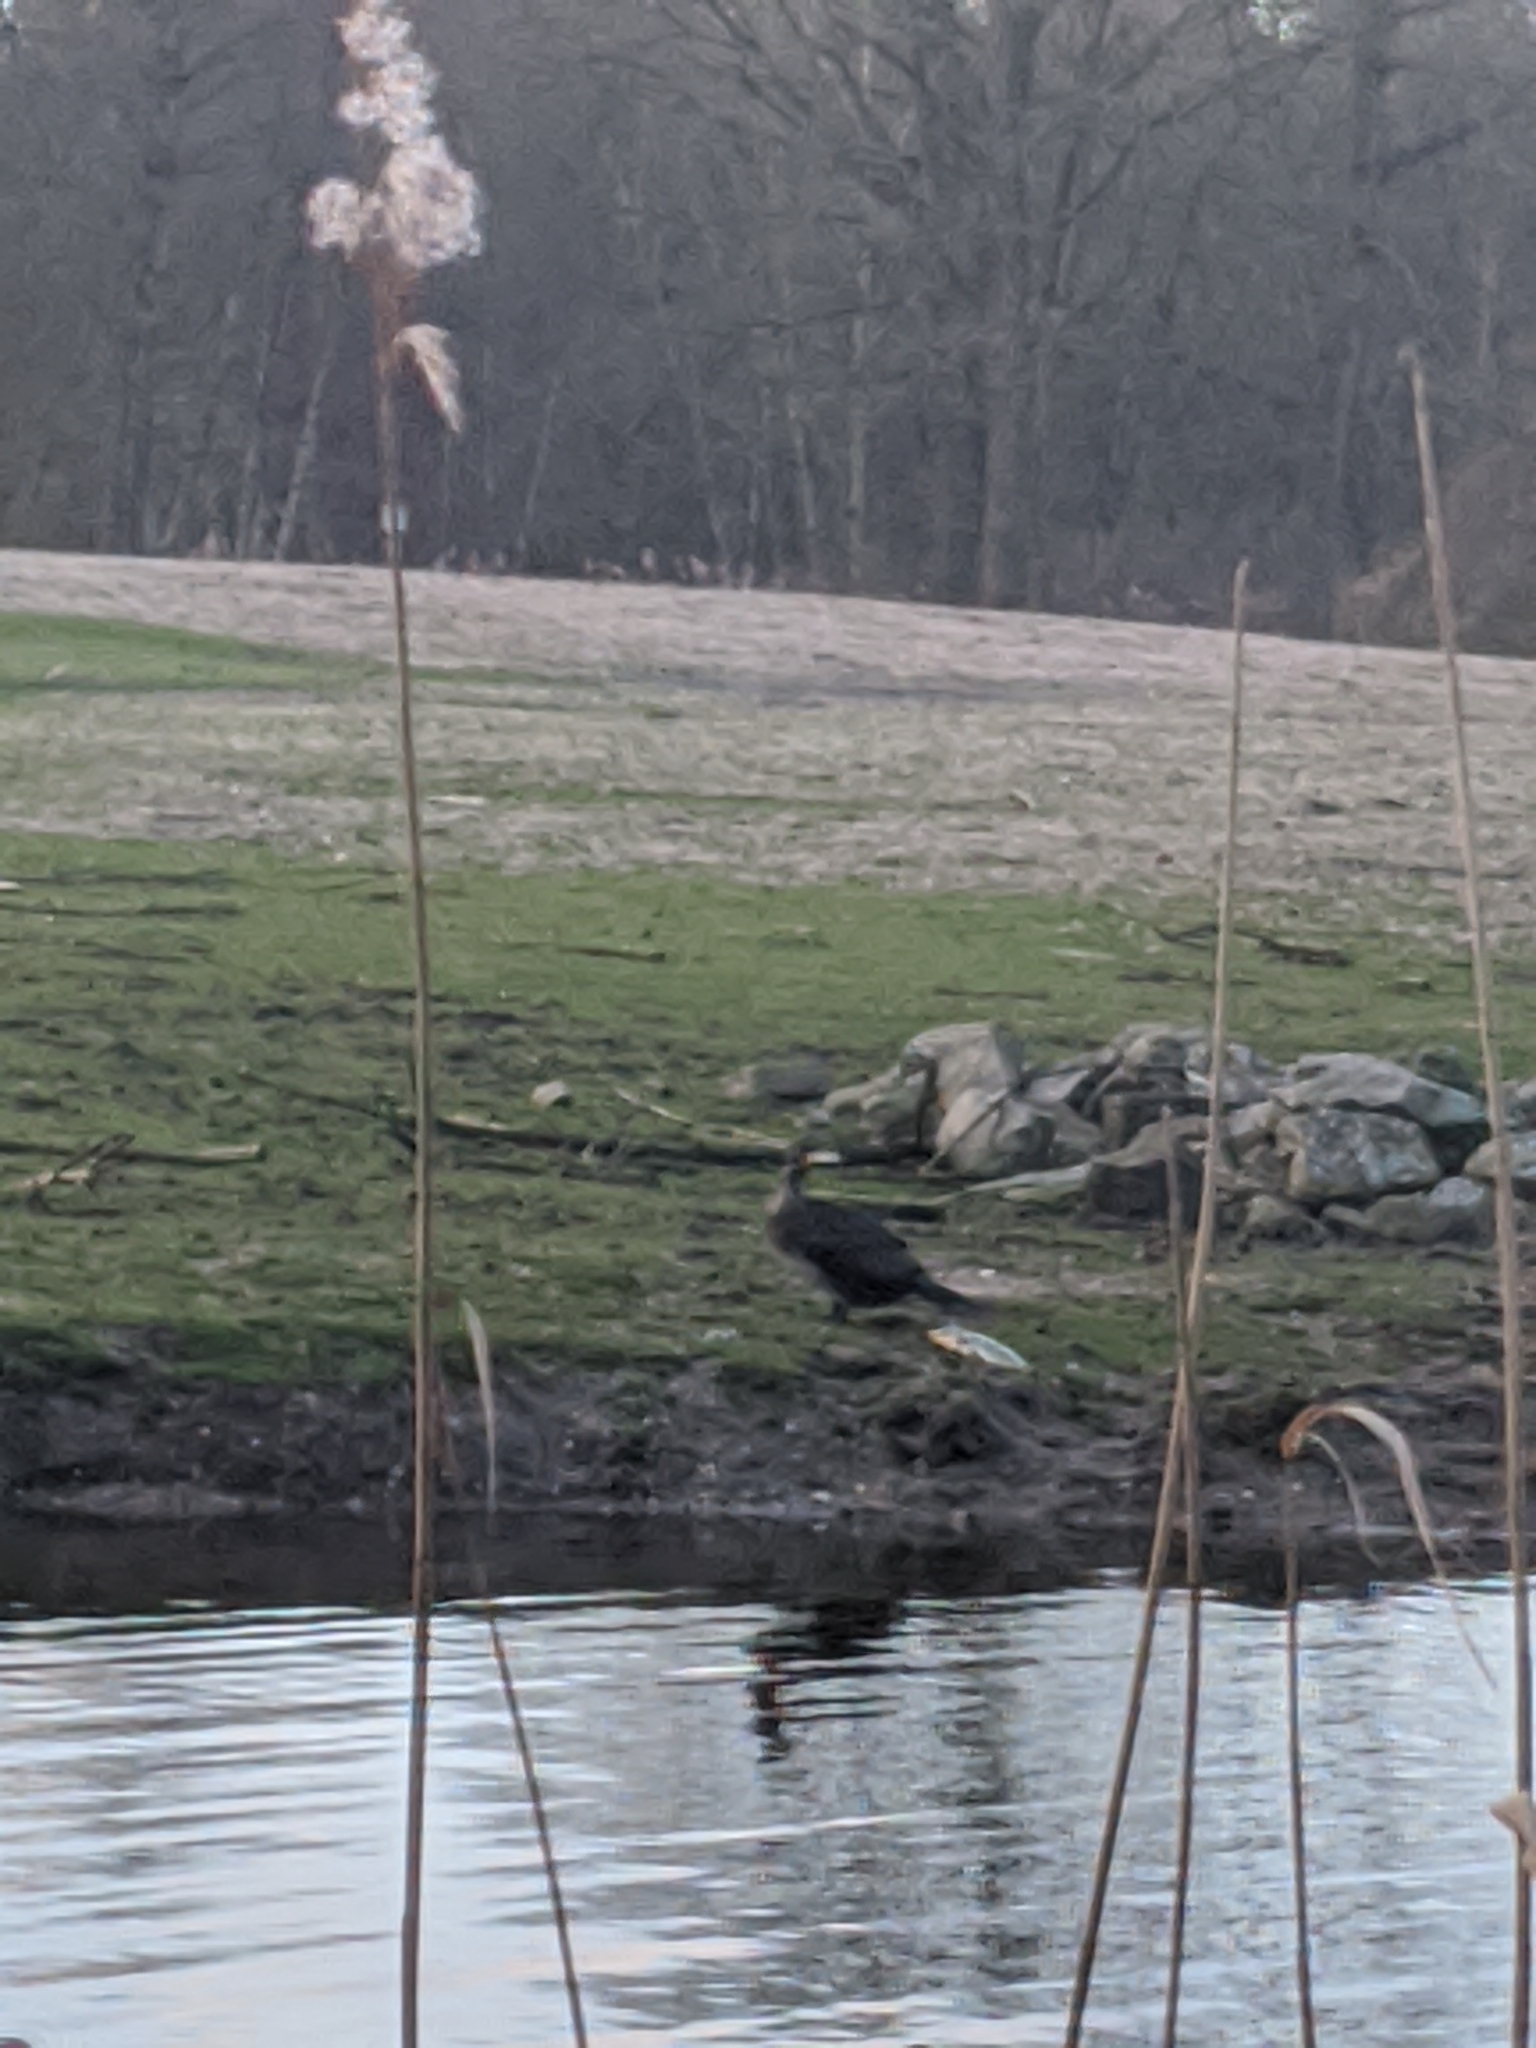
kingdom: Animalia
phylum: Chordata
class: Aves
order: Suliformes
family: Phalacrocoracidae
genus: Phalacrocorax
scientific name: Phalacrocorax carbo
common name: Great cormorant
